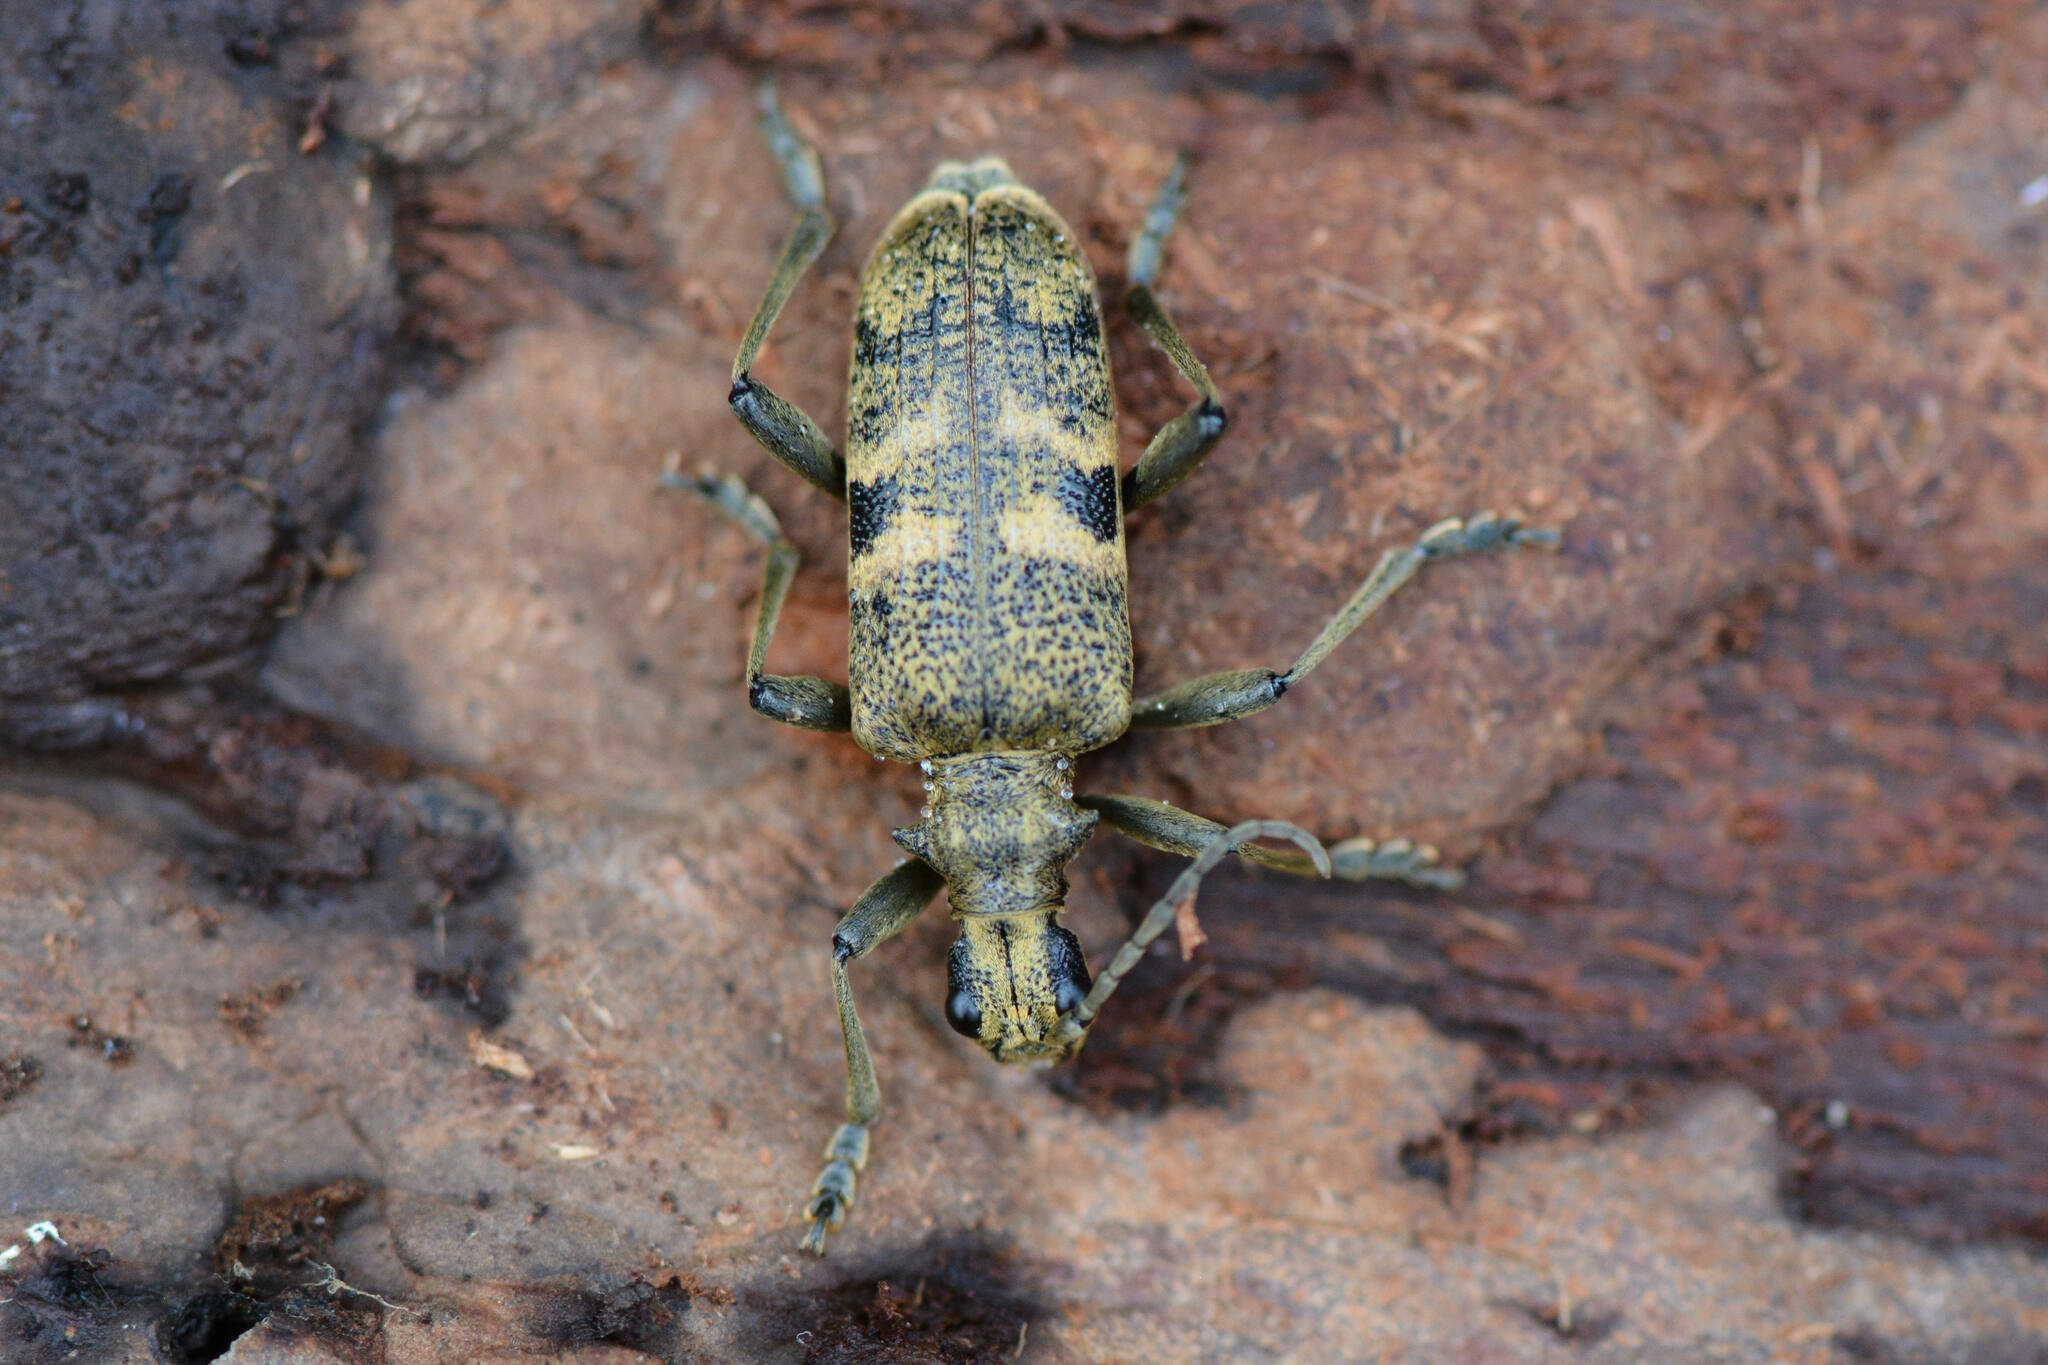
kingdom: Animalia
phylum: Arthropoda
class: Insecta
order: Coleoptera
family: Cerambycidae
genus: Rhagium
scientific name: Rhagium mordax
